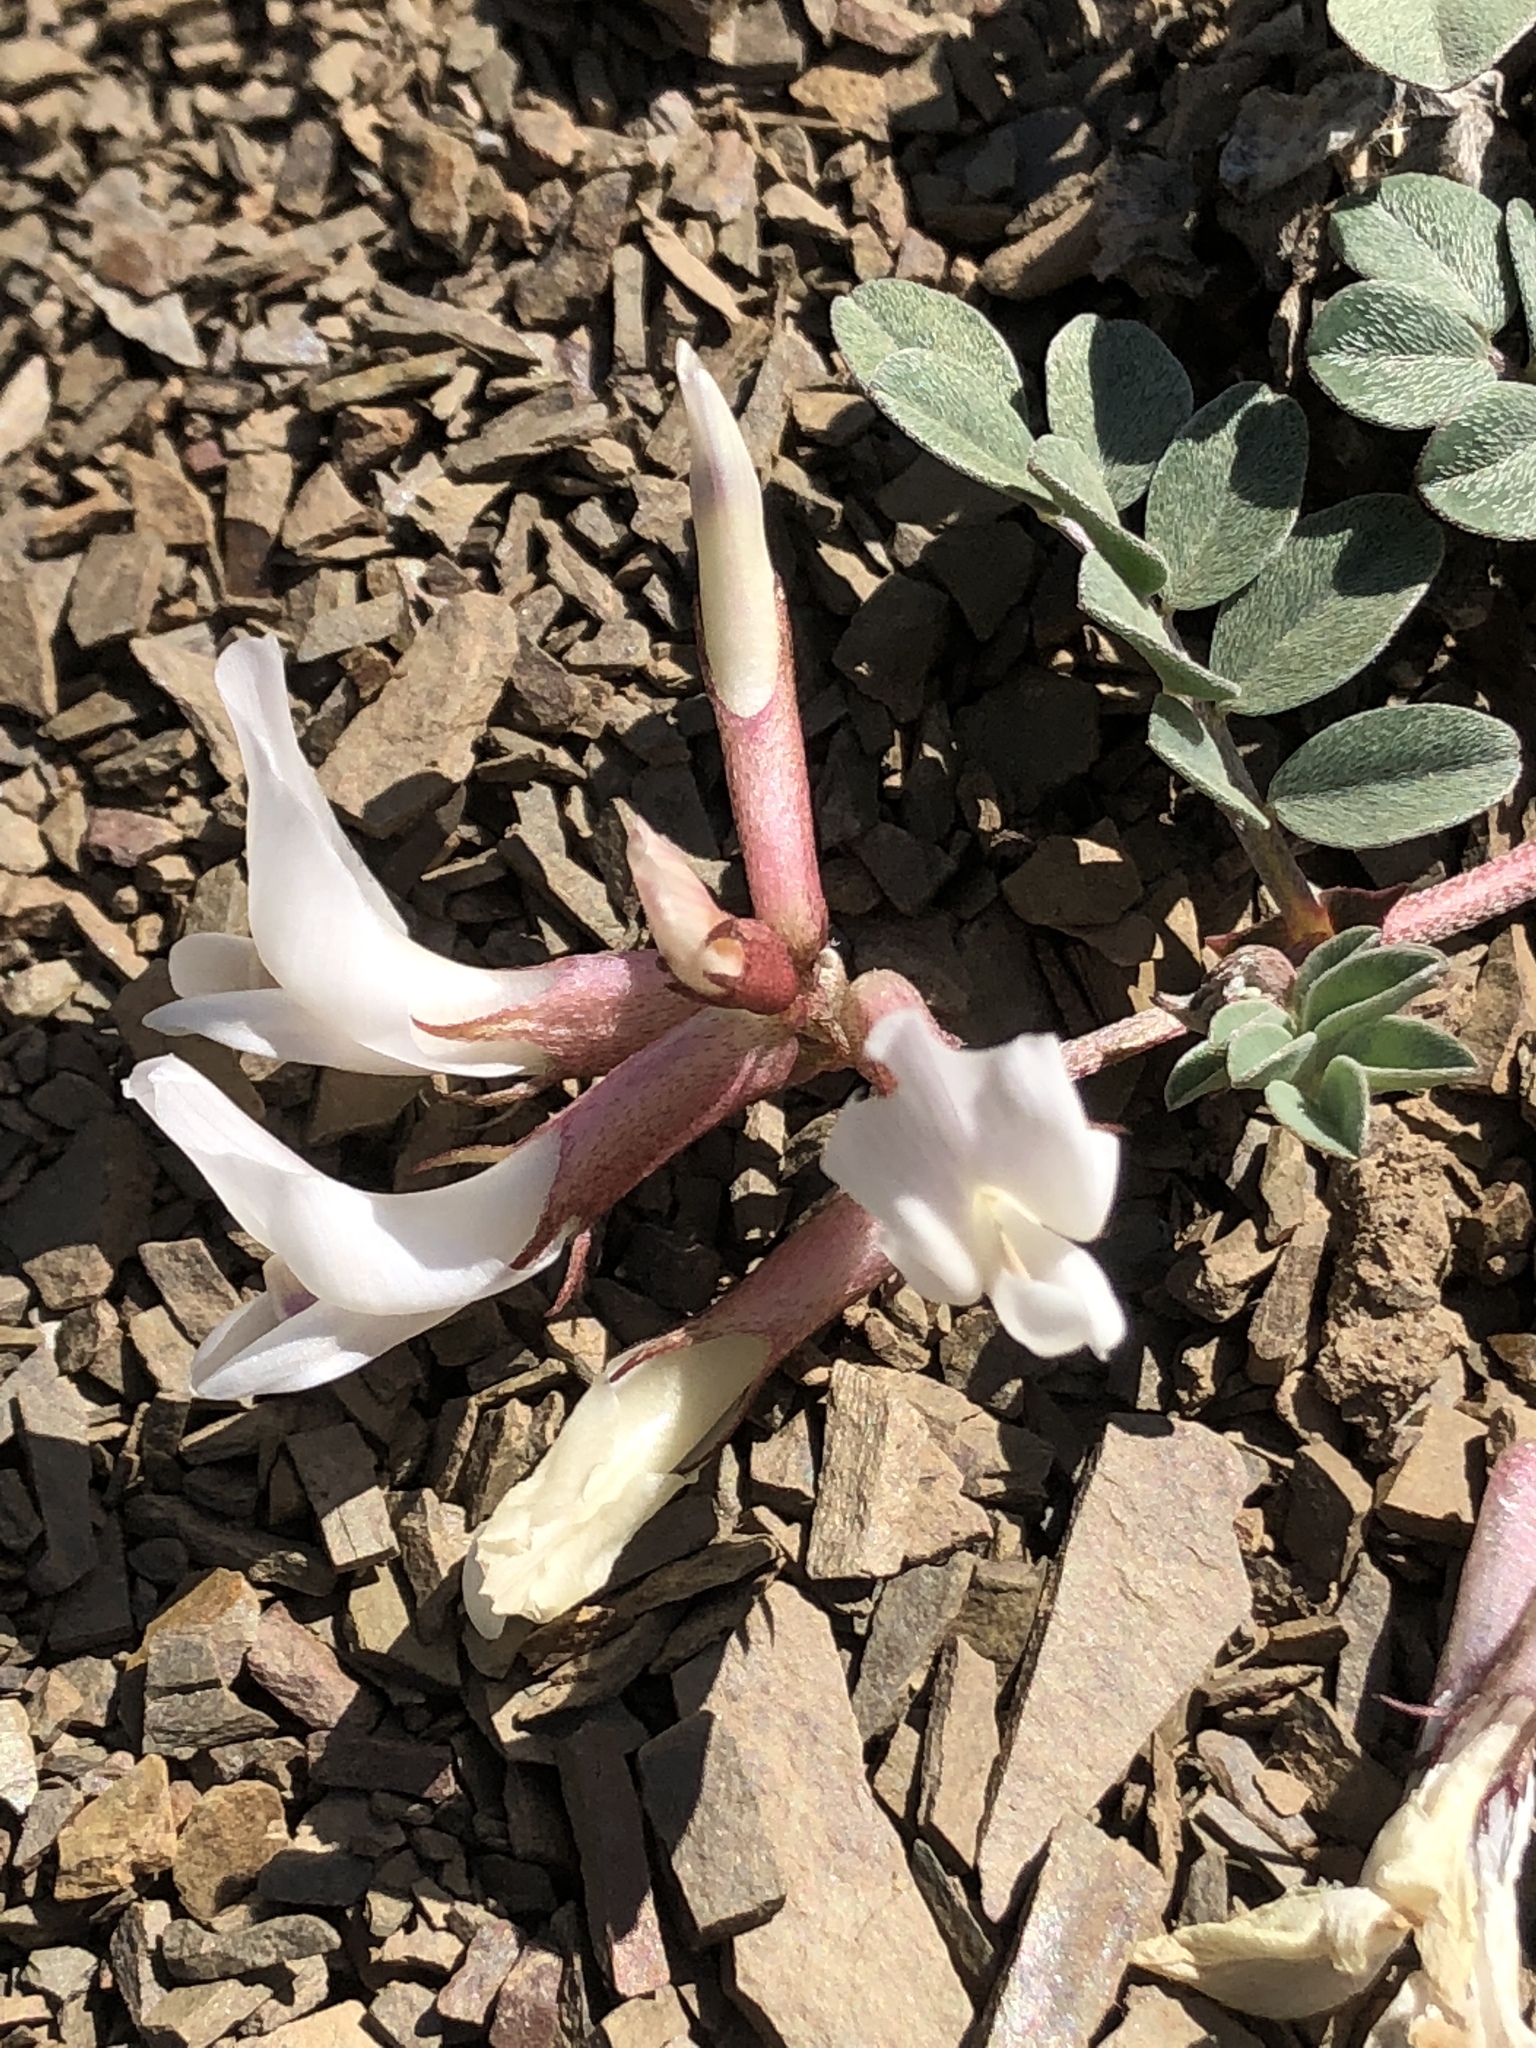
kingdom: Plantae
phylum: Tracheophyta
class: Magnoliopsida
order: Fabales
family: Fabaceae
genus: Astragalus
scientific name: Astragalus kelseyae
